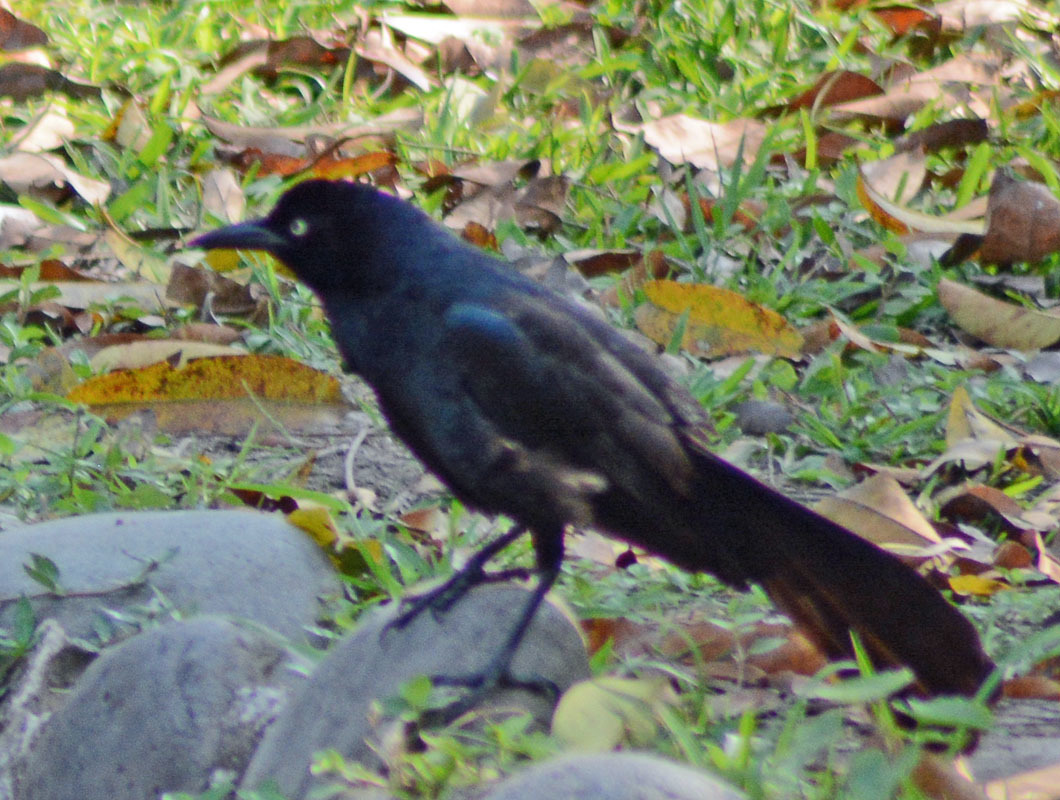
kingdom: Animalia
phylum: Chordata
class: Aves
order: Passeriformes
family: Icteridae
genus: Quiscalus
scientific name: Quiscalus mexicanus
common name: Great-tailed grackle
